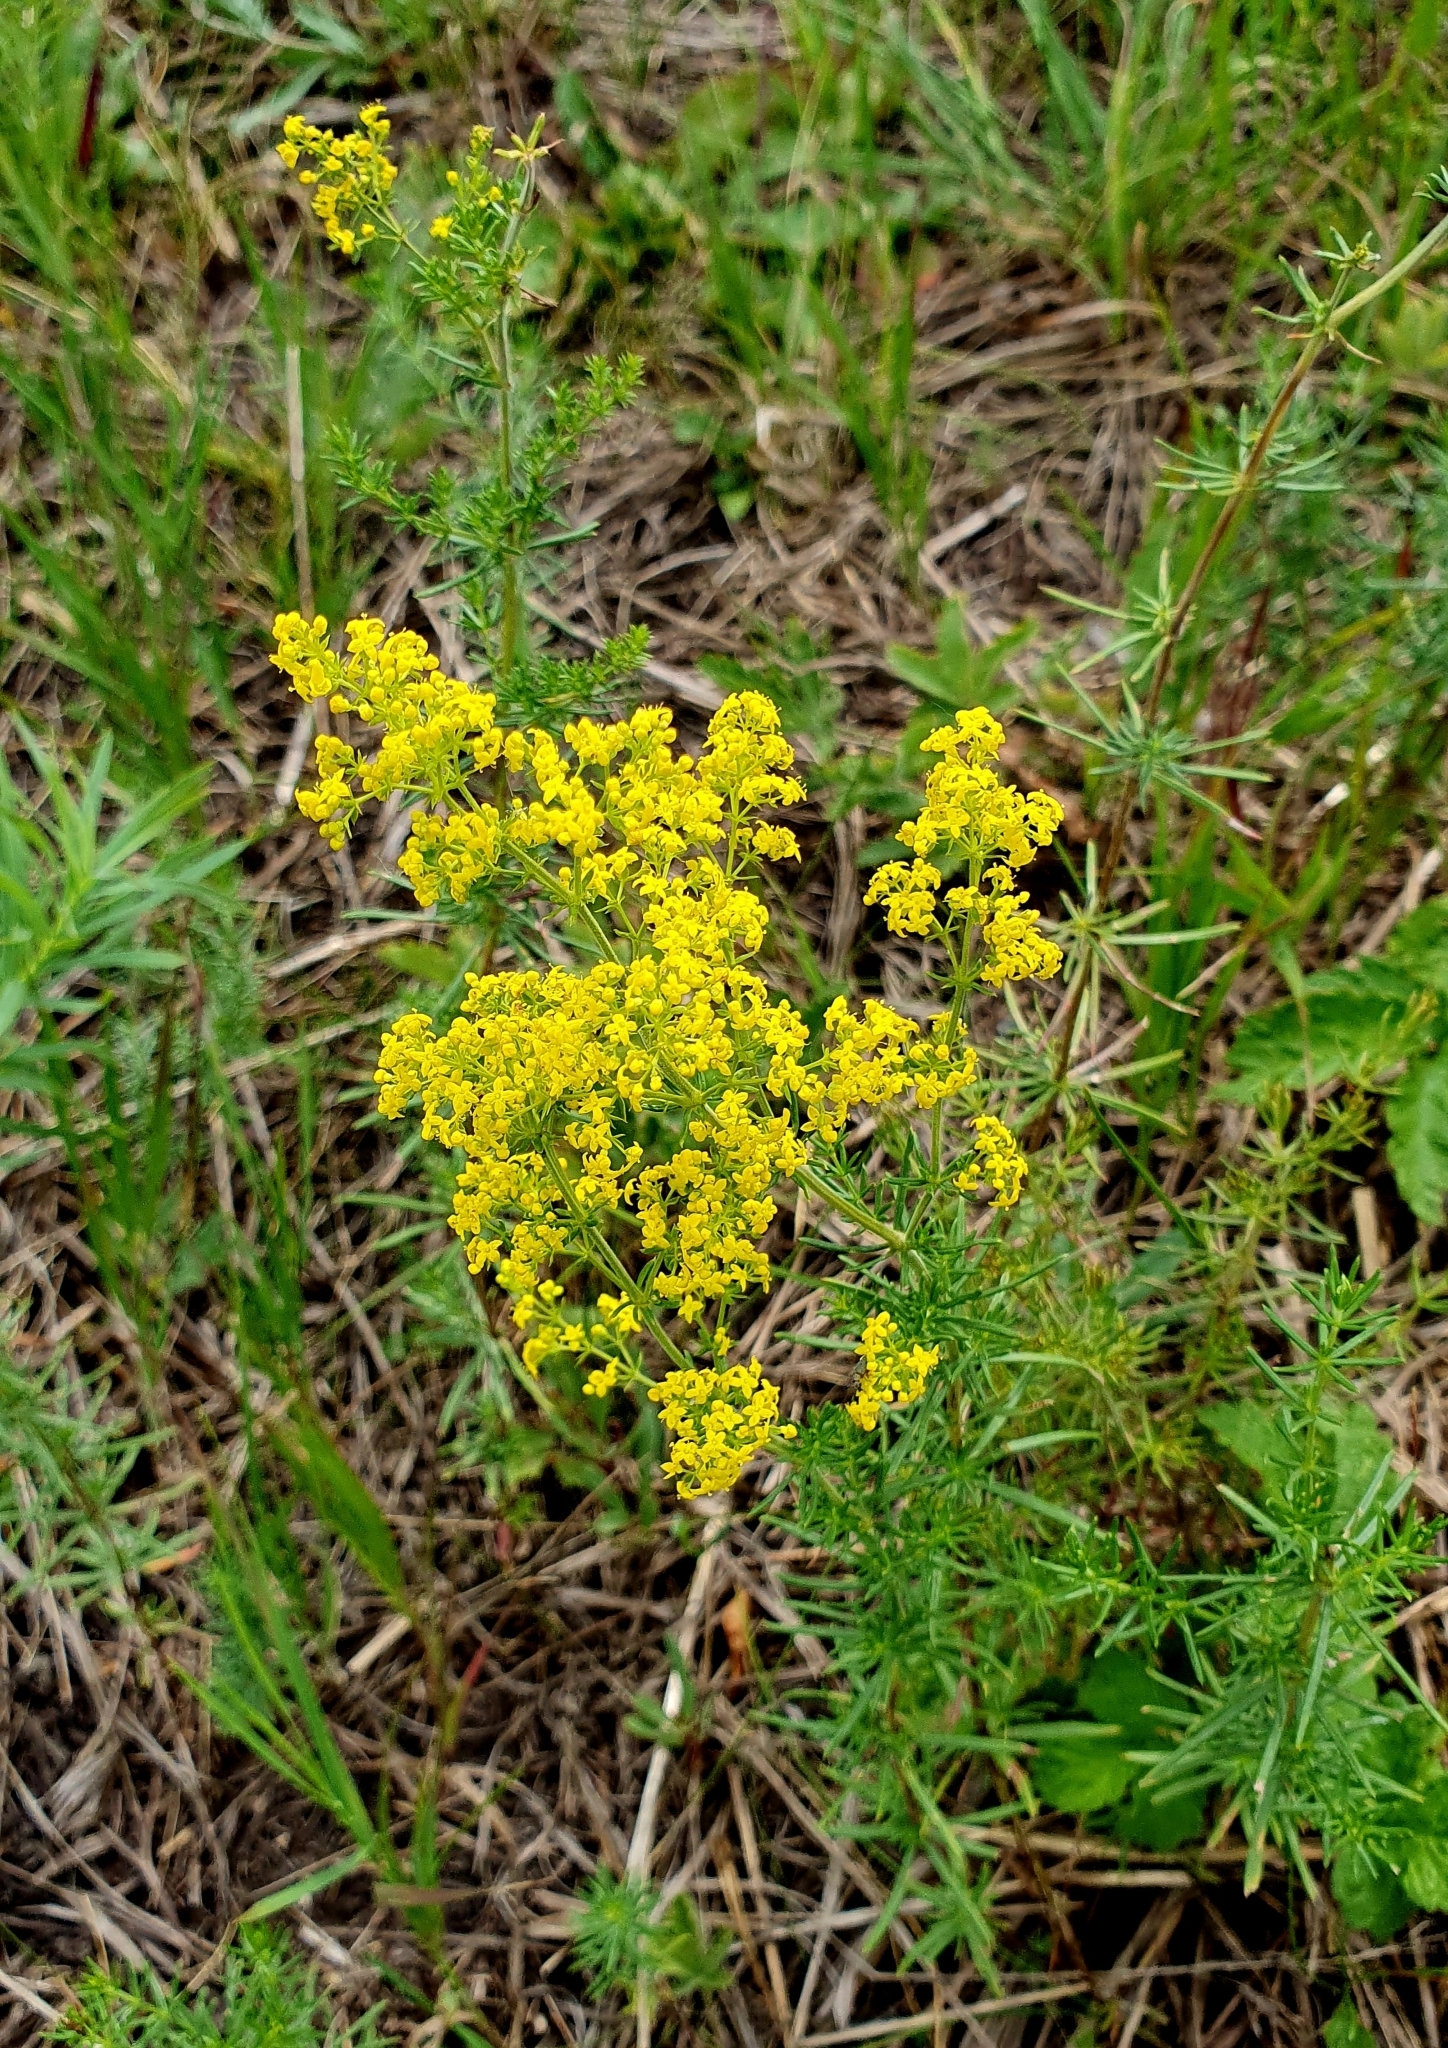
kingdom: Plantae
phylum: Tracheophyta
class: Magnoliopsida
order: Gentianales
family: Rubiaceae
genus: Galium
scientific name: Galium verum
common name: Lady's bedstraw
